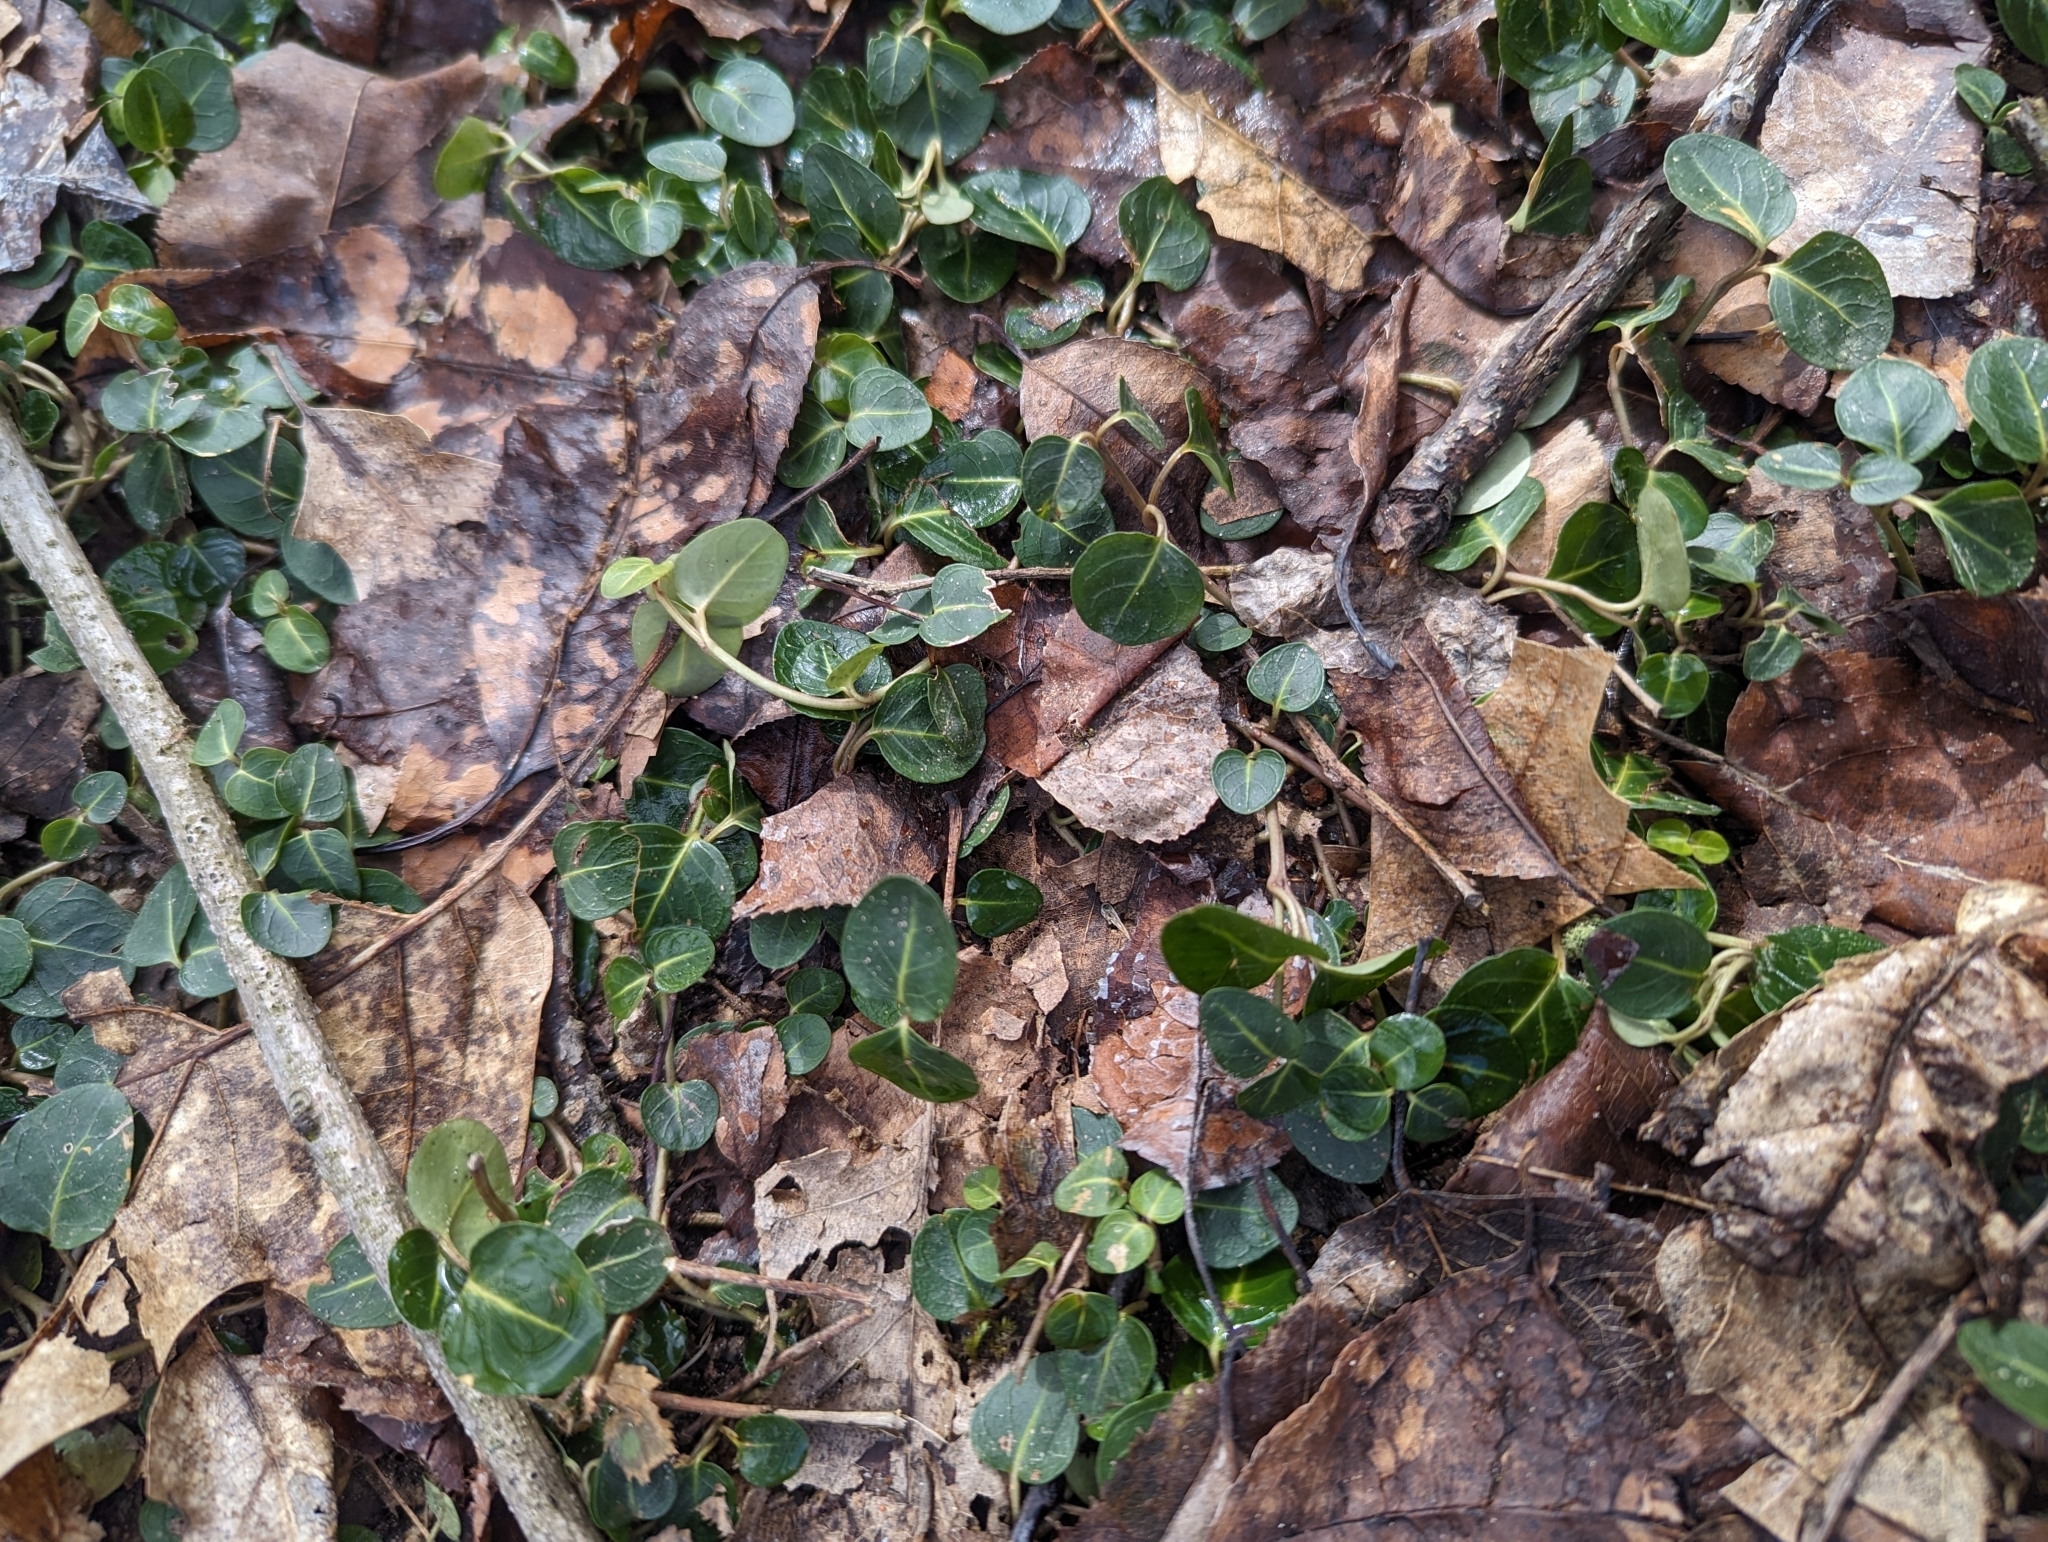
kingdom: Plantae
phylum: Tracheophyta
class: Magnoliopsida
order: Gentianales
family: Rubiaceae
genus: Mitchella
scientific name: Mitchella repens
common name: Partridge-berry
